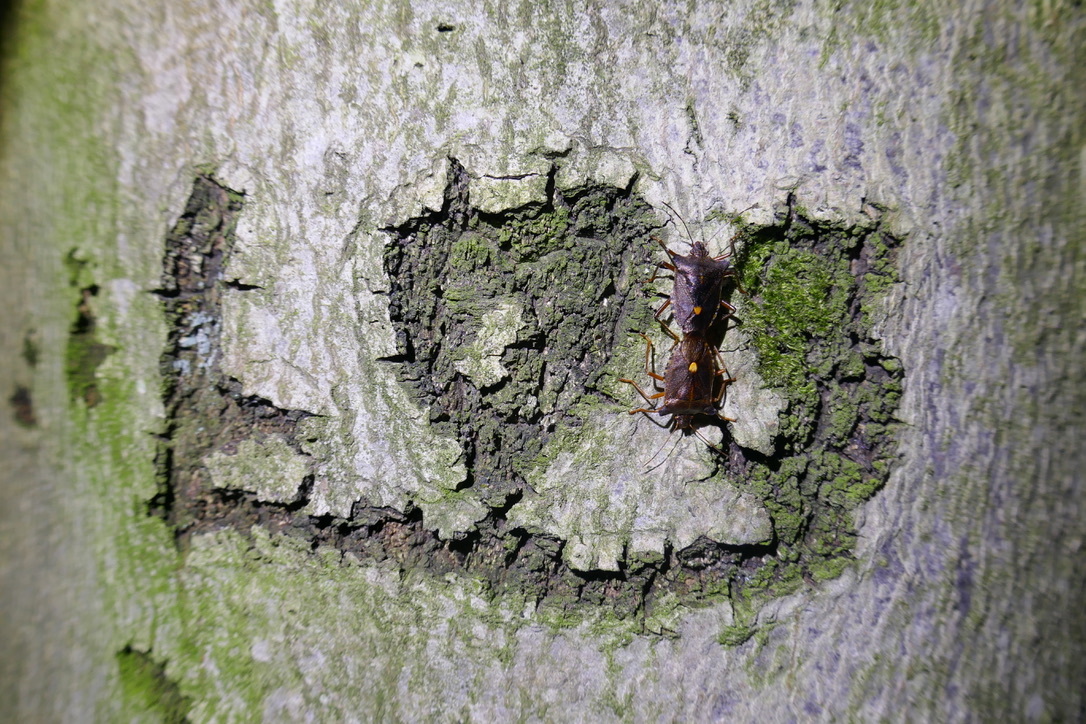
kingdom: Animalia
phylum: Arthropoda
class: Insecta
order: Hemiptera
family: Pentatomidae
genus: Pentatoma
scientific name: Pentatoma rufipes
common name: Forest bug
